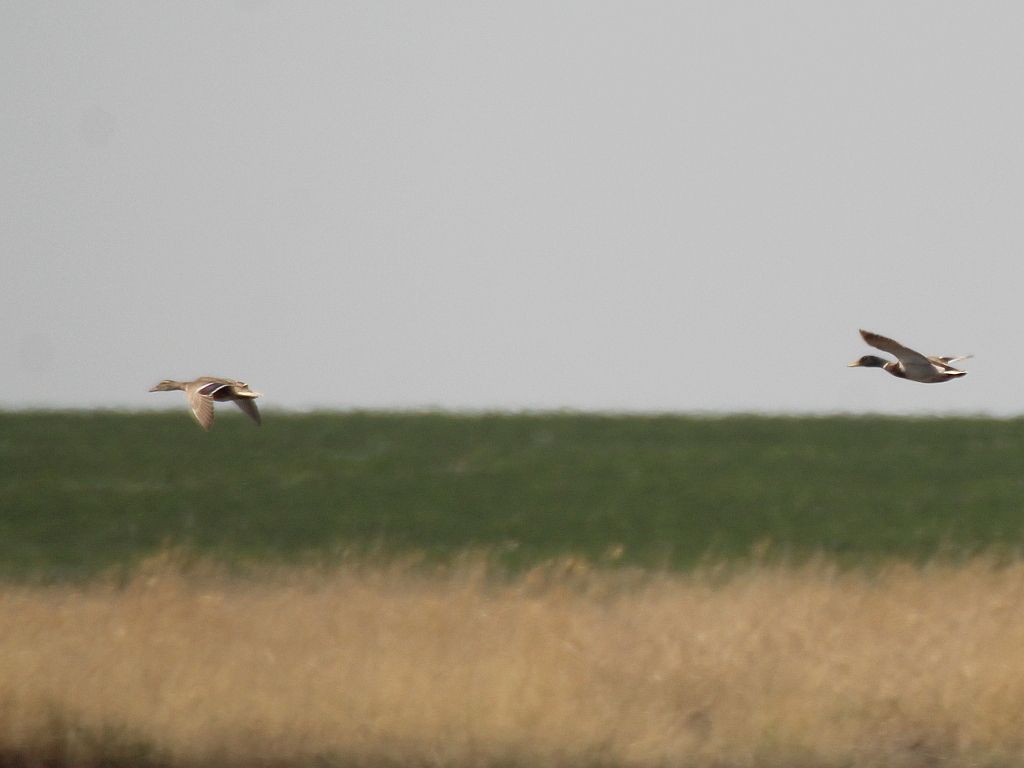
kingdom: Animalia
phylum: Chordata
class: Aves
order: Anseriformes
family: Anatidae
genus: Anas
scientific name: Anas platyrhynchos
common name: Mallard
